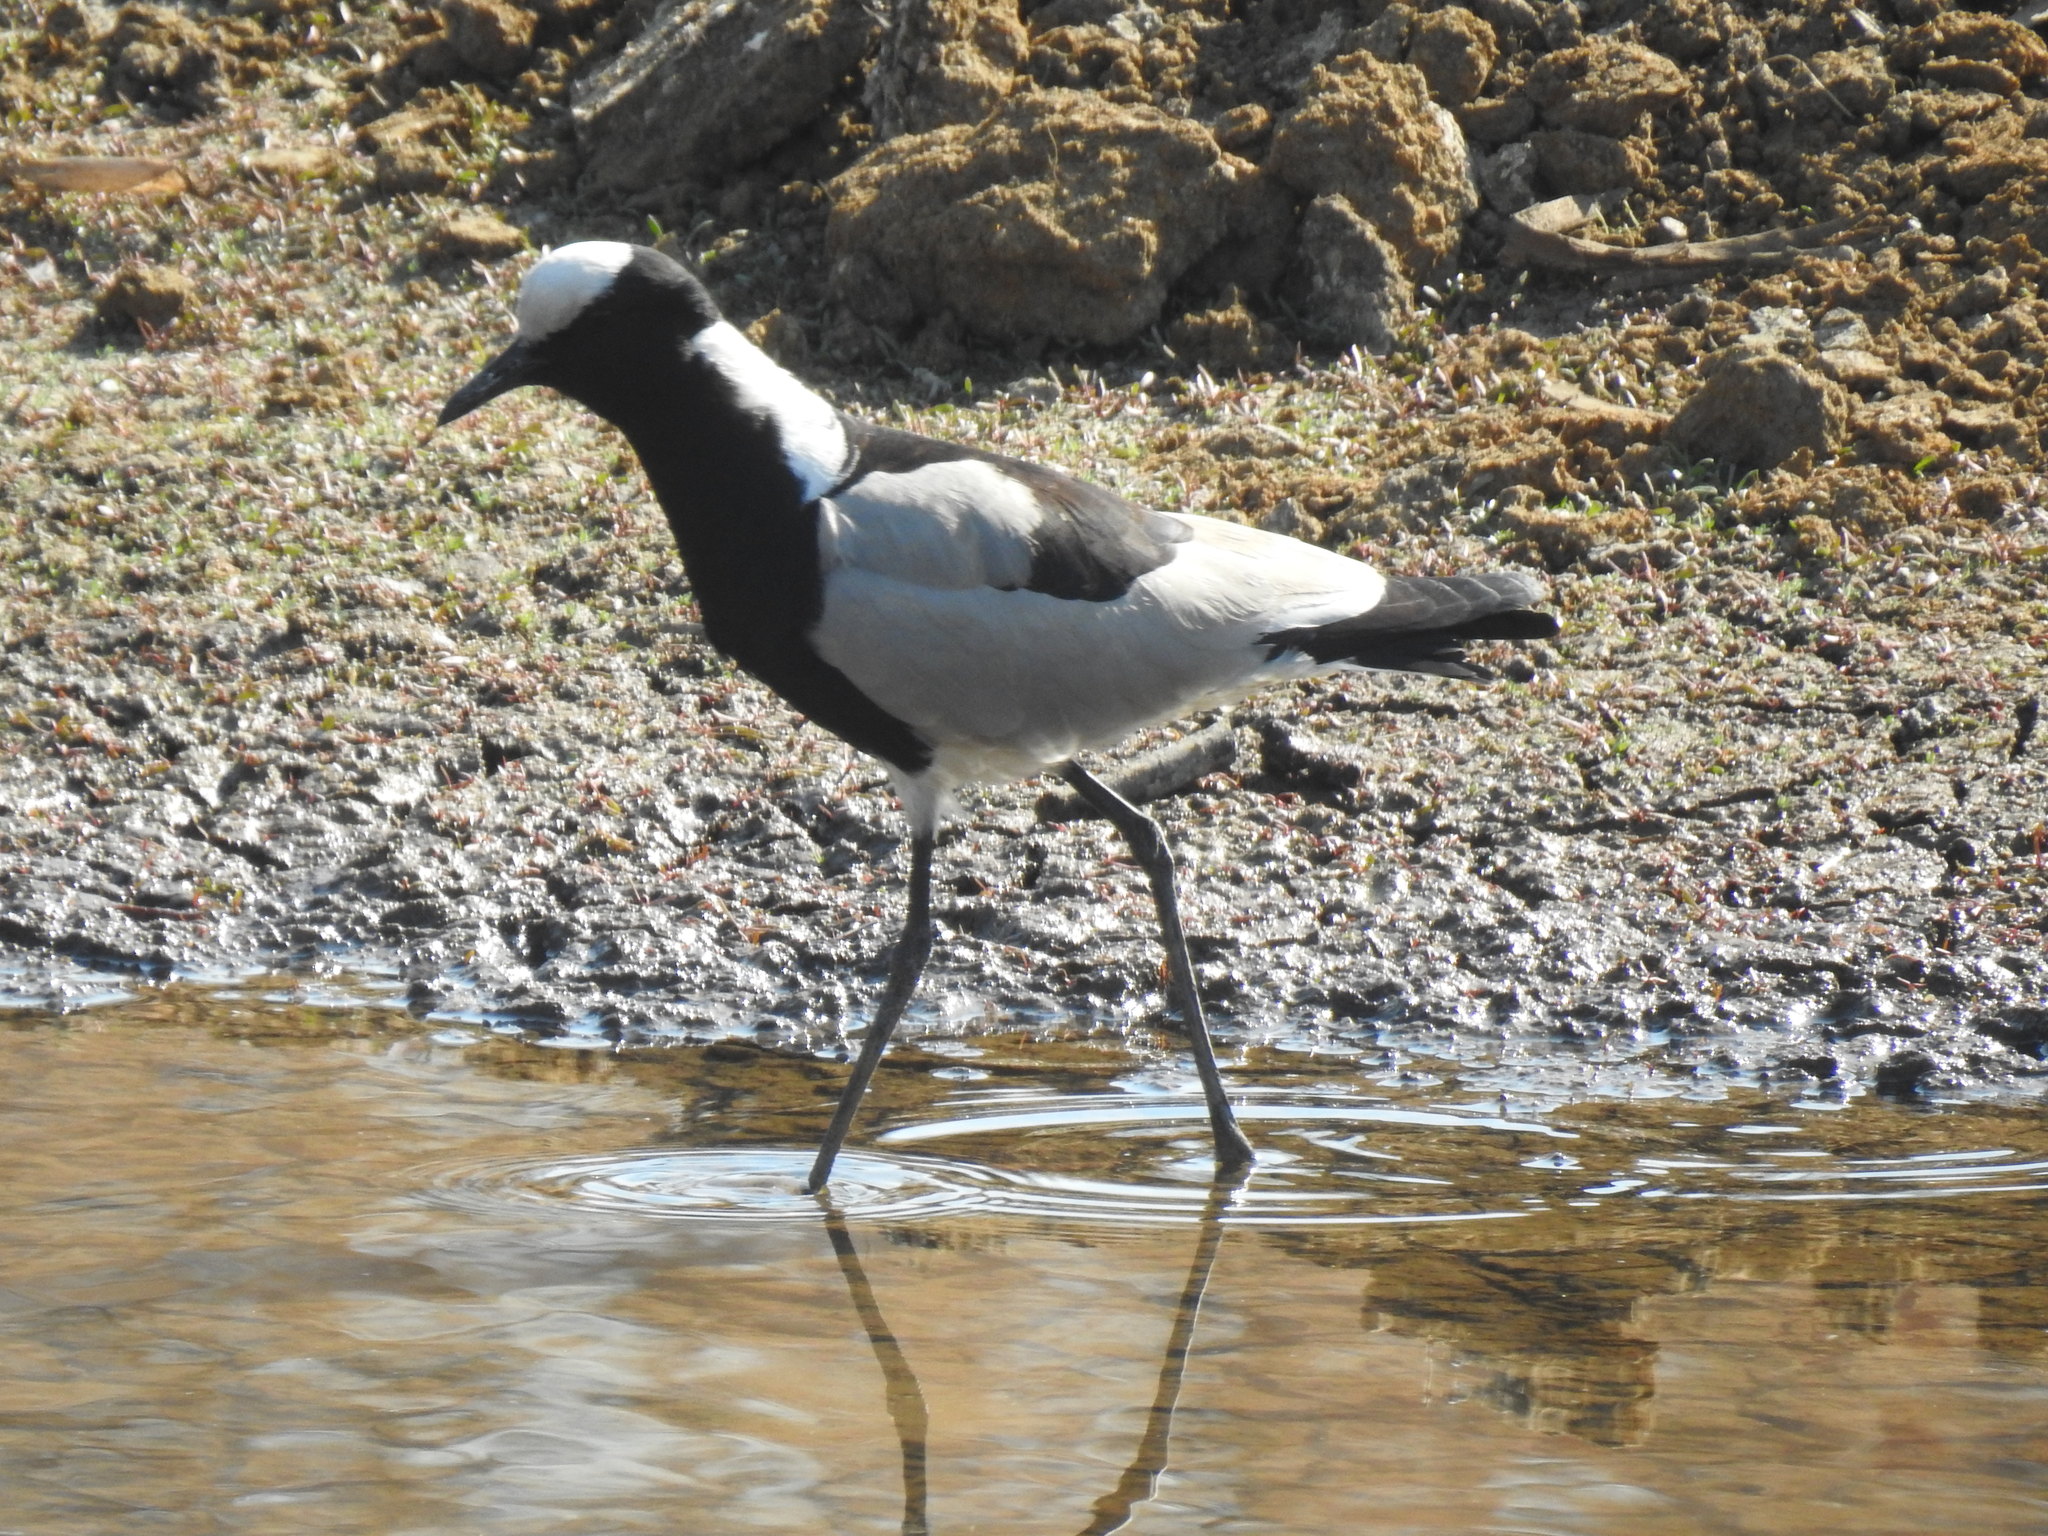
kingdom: Animalia
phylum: Chordata
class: Aves
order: Charadriiformes
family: Charadriidae
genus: Vanellus
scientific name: Vanellus armatus
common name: Blacksmith lapwing
